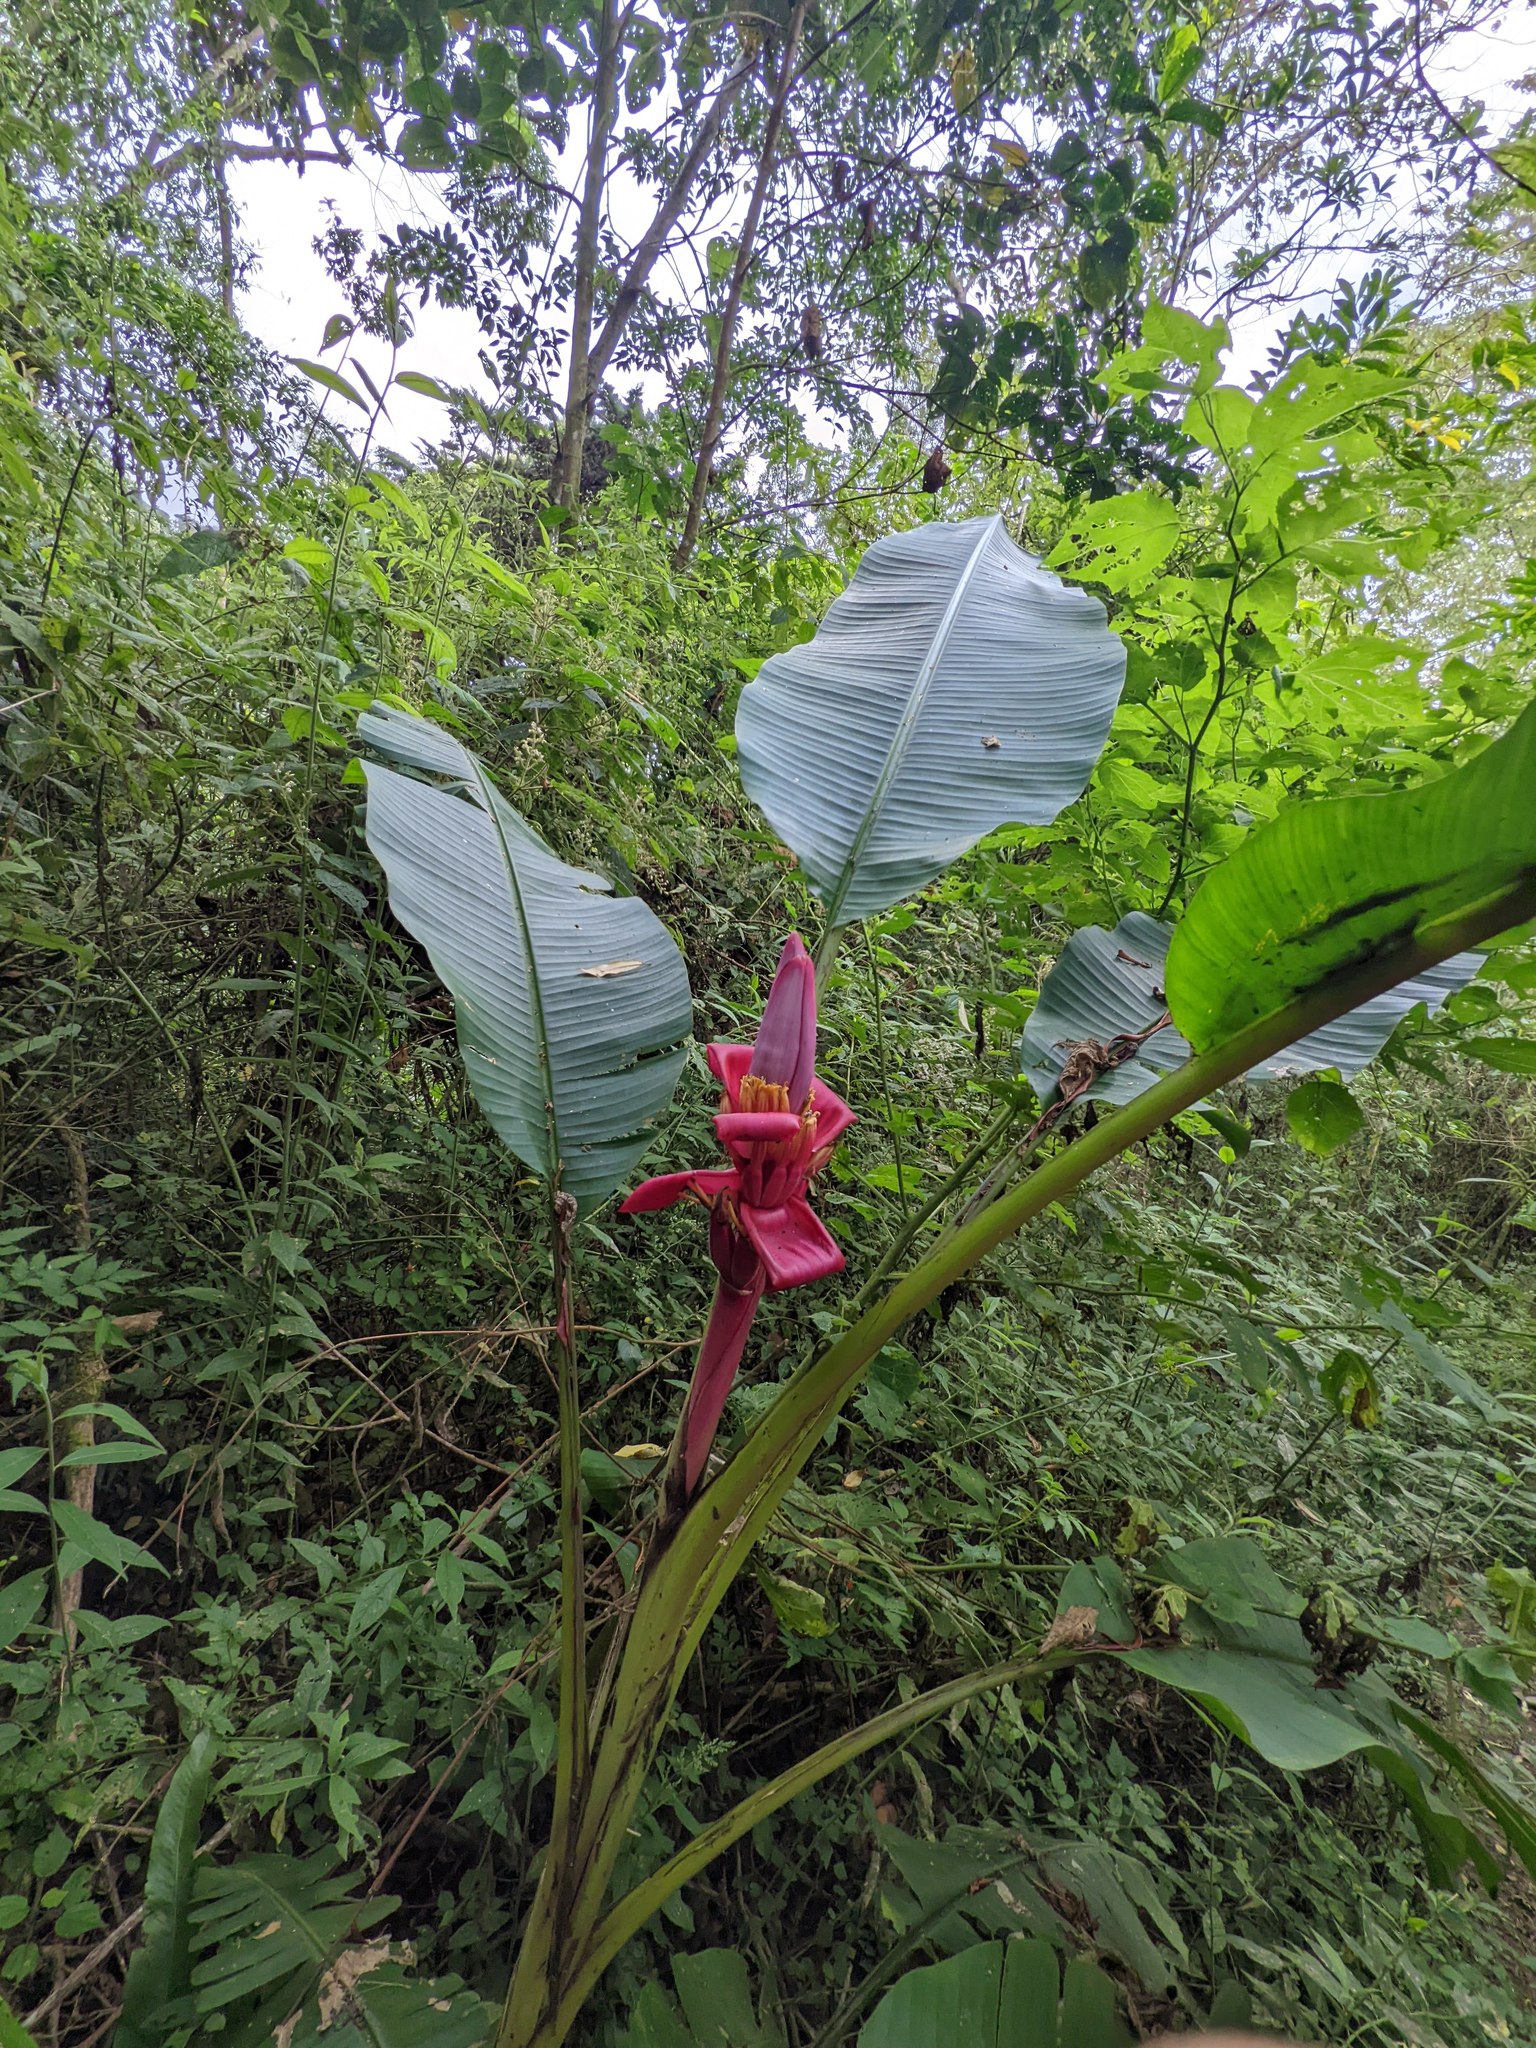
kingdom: Plantae
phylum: Tracheophyta
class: Liliopsida
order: Zingiberales
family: Musaceae
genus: Musa
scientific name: Musa velutina
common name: Pink velvet banana
